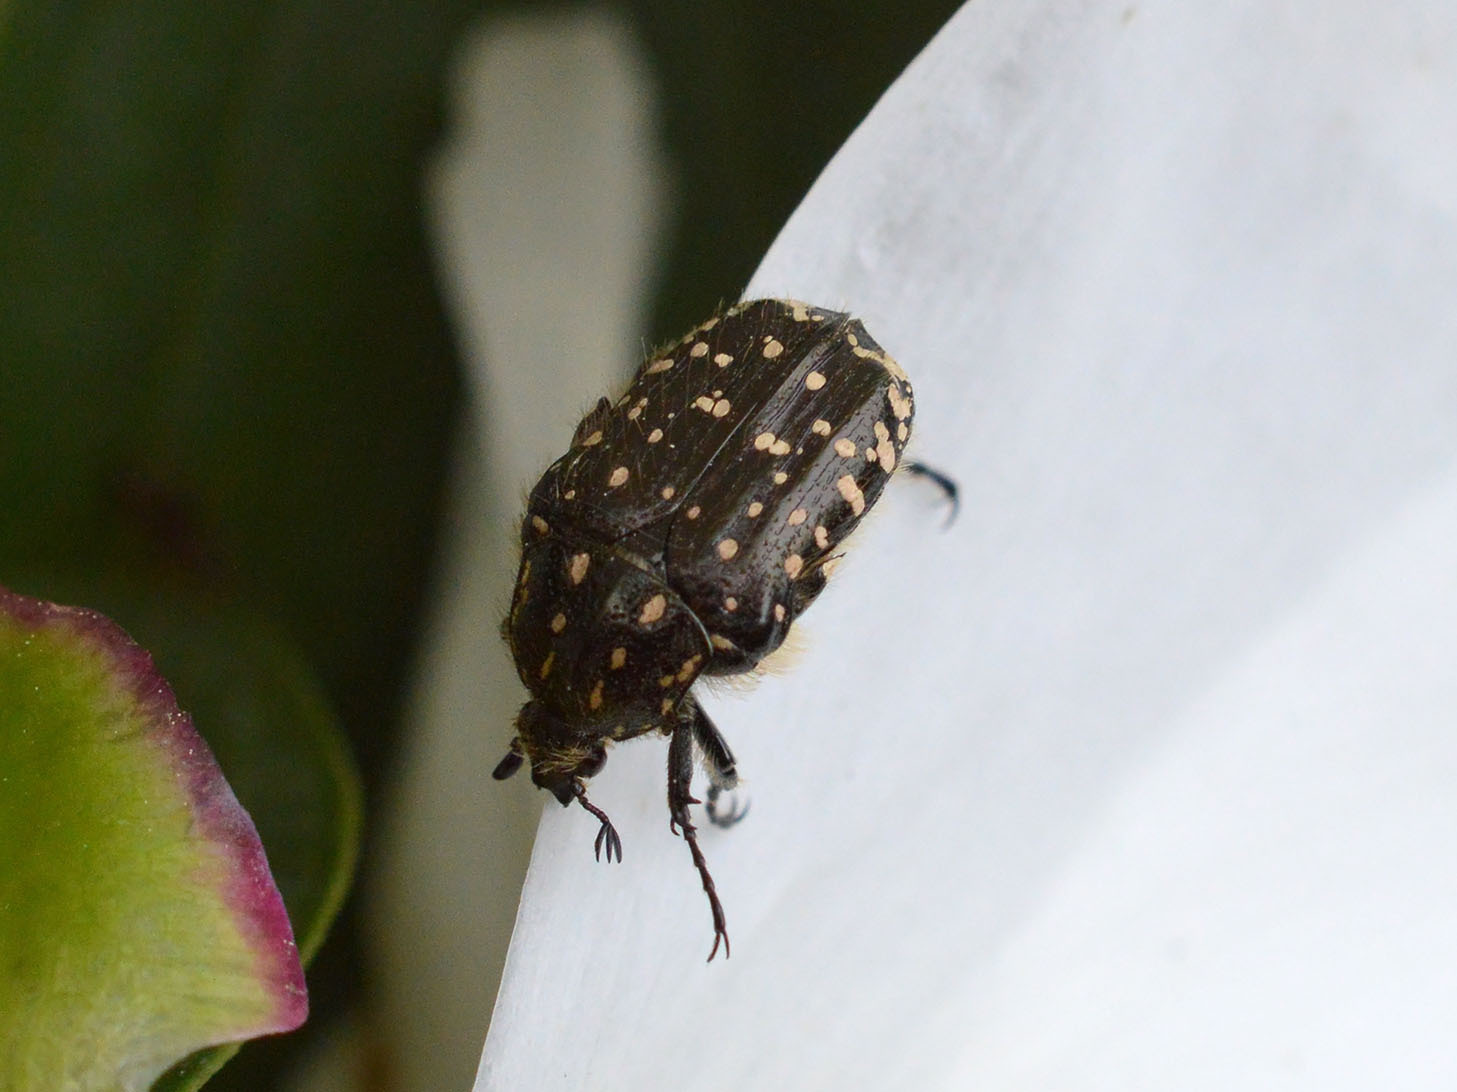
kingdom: Animalia
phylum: Arthropoda
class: Insecta
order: Coleoptera
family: Scarabaeidae
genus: Oxythyrea
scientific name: Oxythyrea funesta
